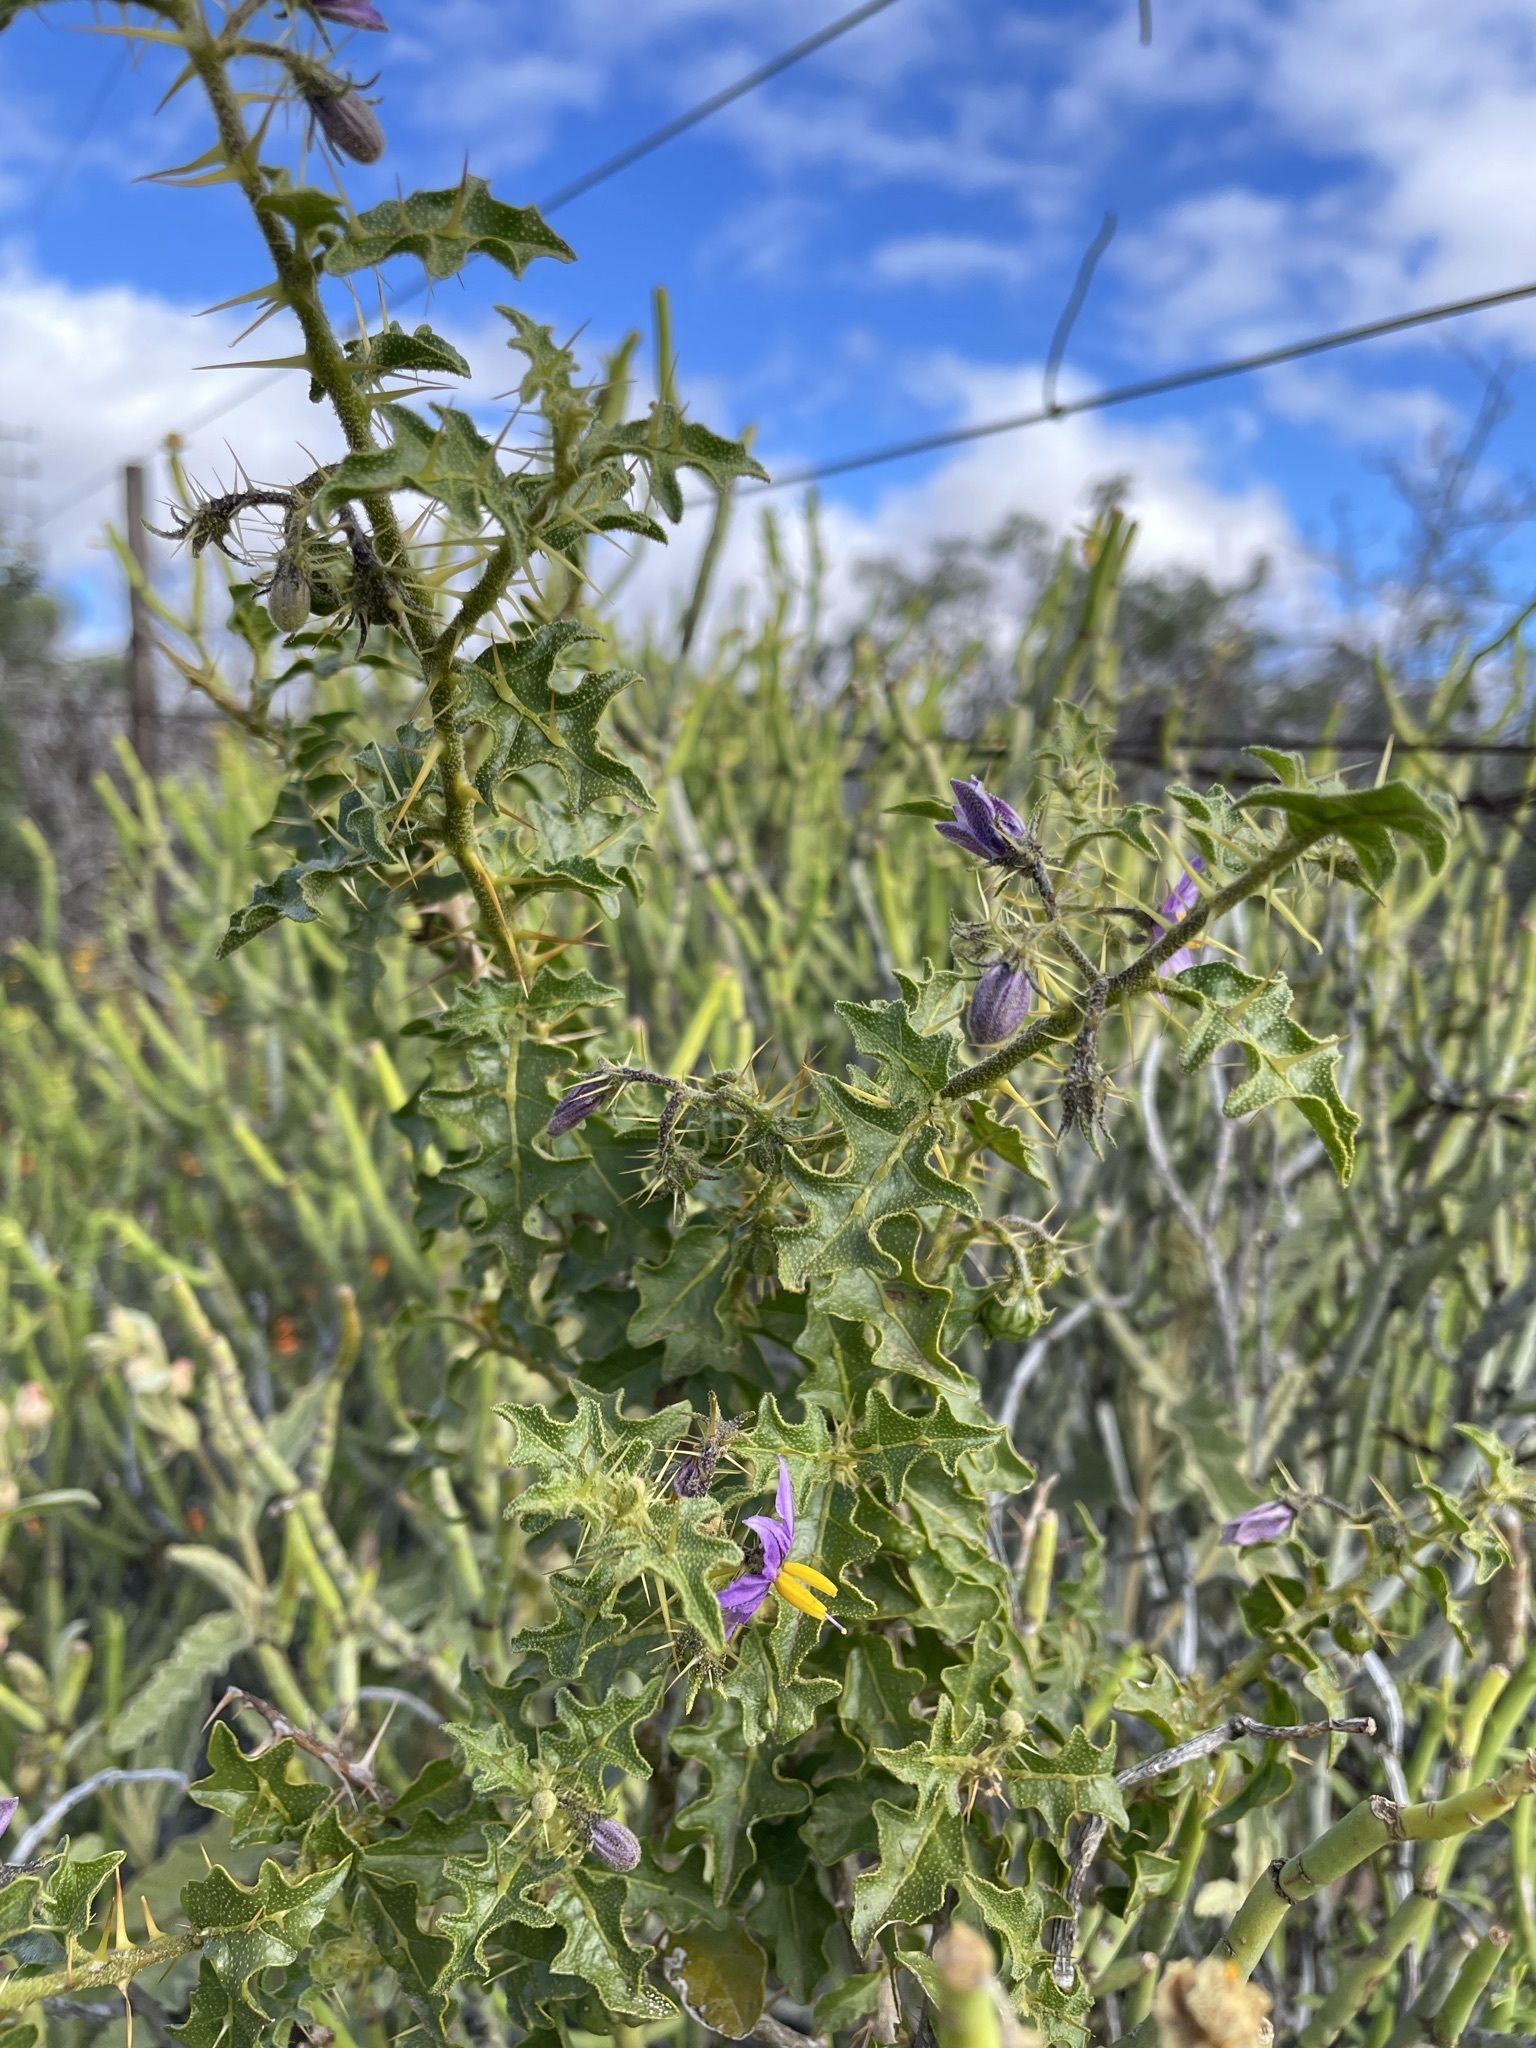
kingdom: Plantae
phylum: Tracheophyta
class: Magnoliopsida
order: Solanales
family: Solanaceae
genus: Solanum
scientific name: Solanum humile
